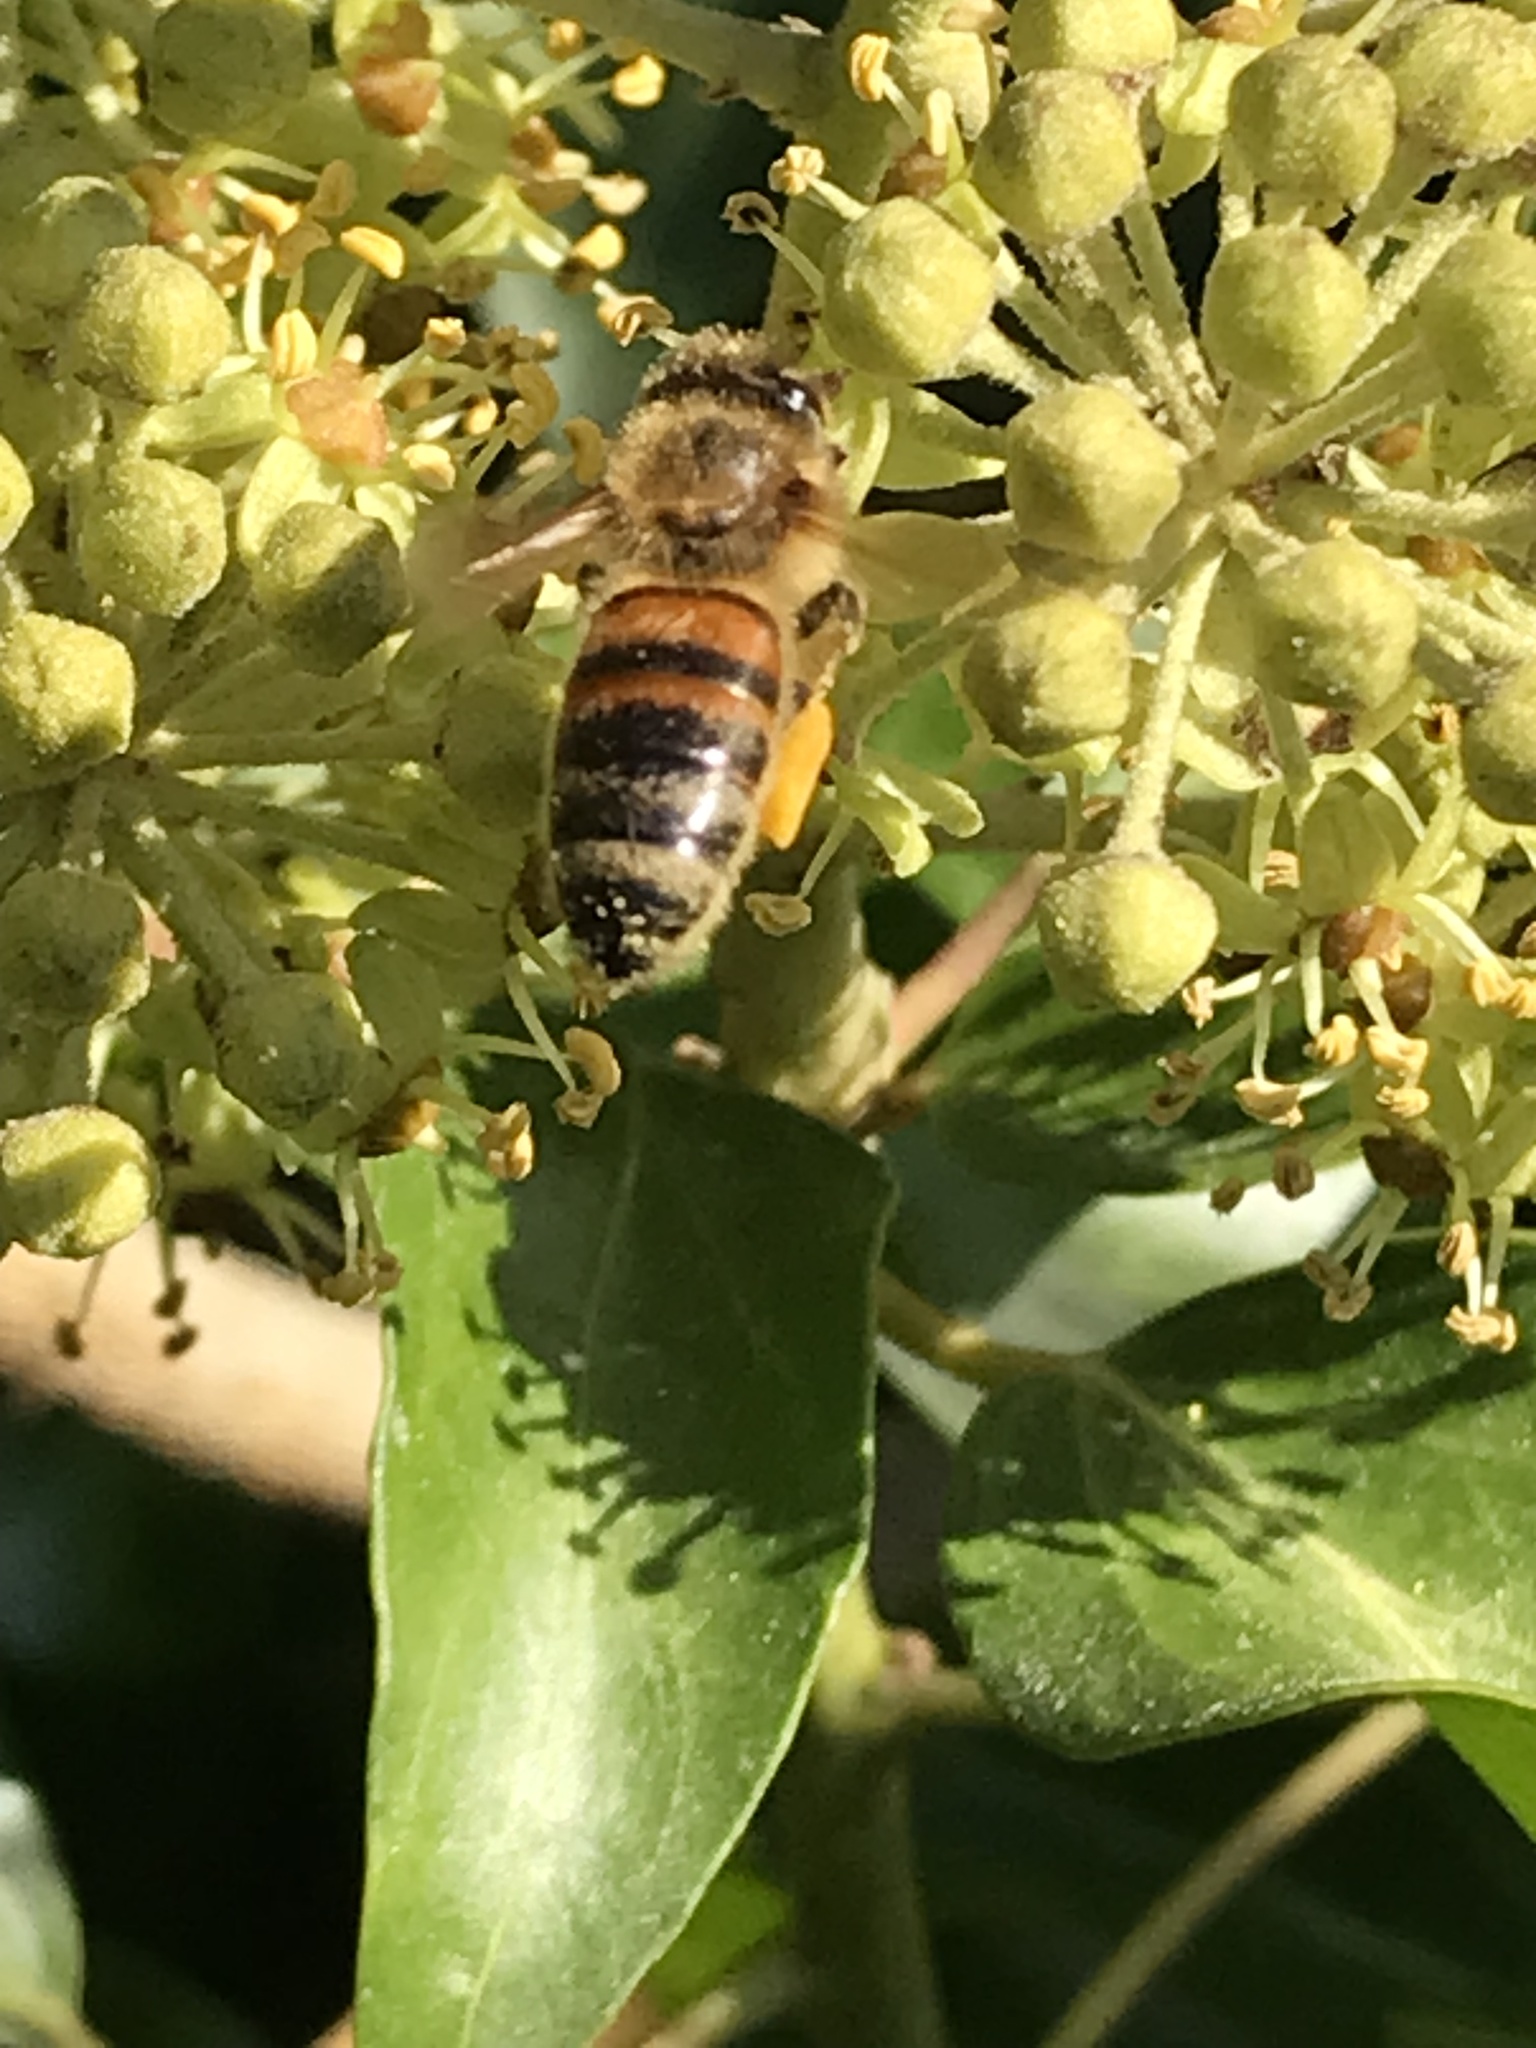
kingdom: Animalia
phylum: Arthropoda
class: Insecta
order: Hymenoptera
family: Apidae
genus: Apis
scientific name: Apis mellifera
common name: Honey bee
